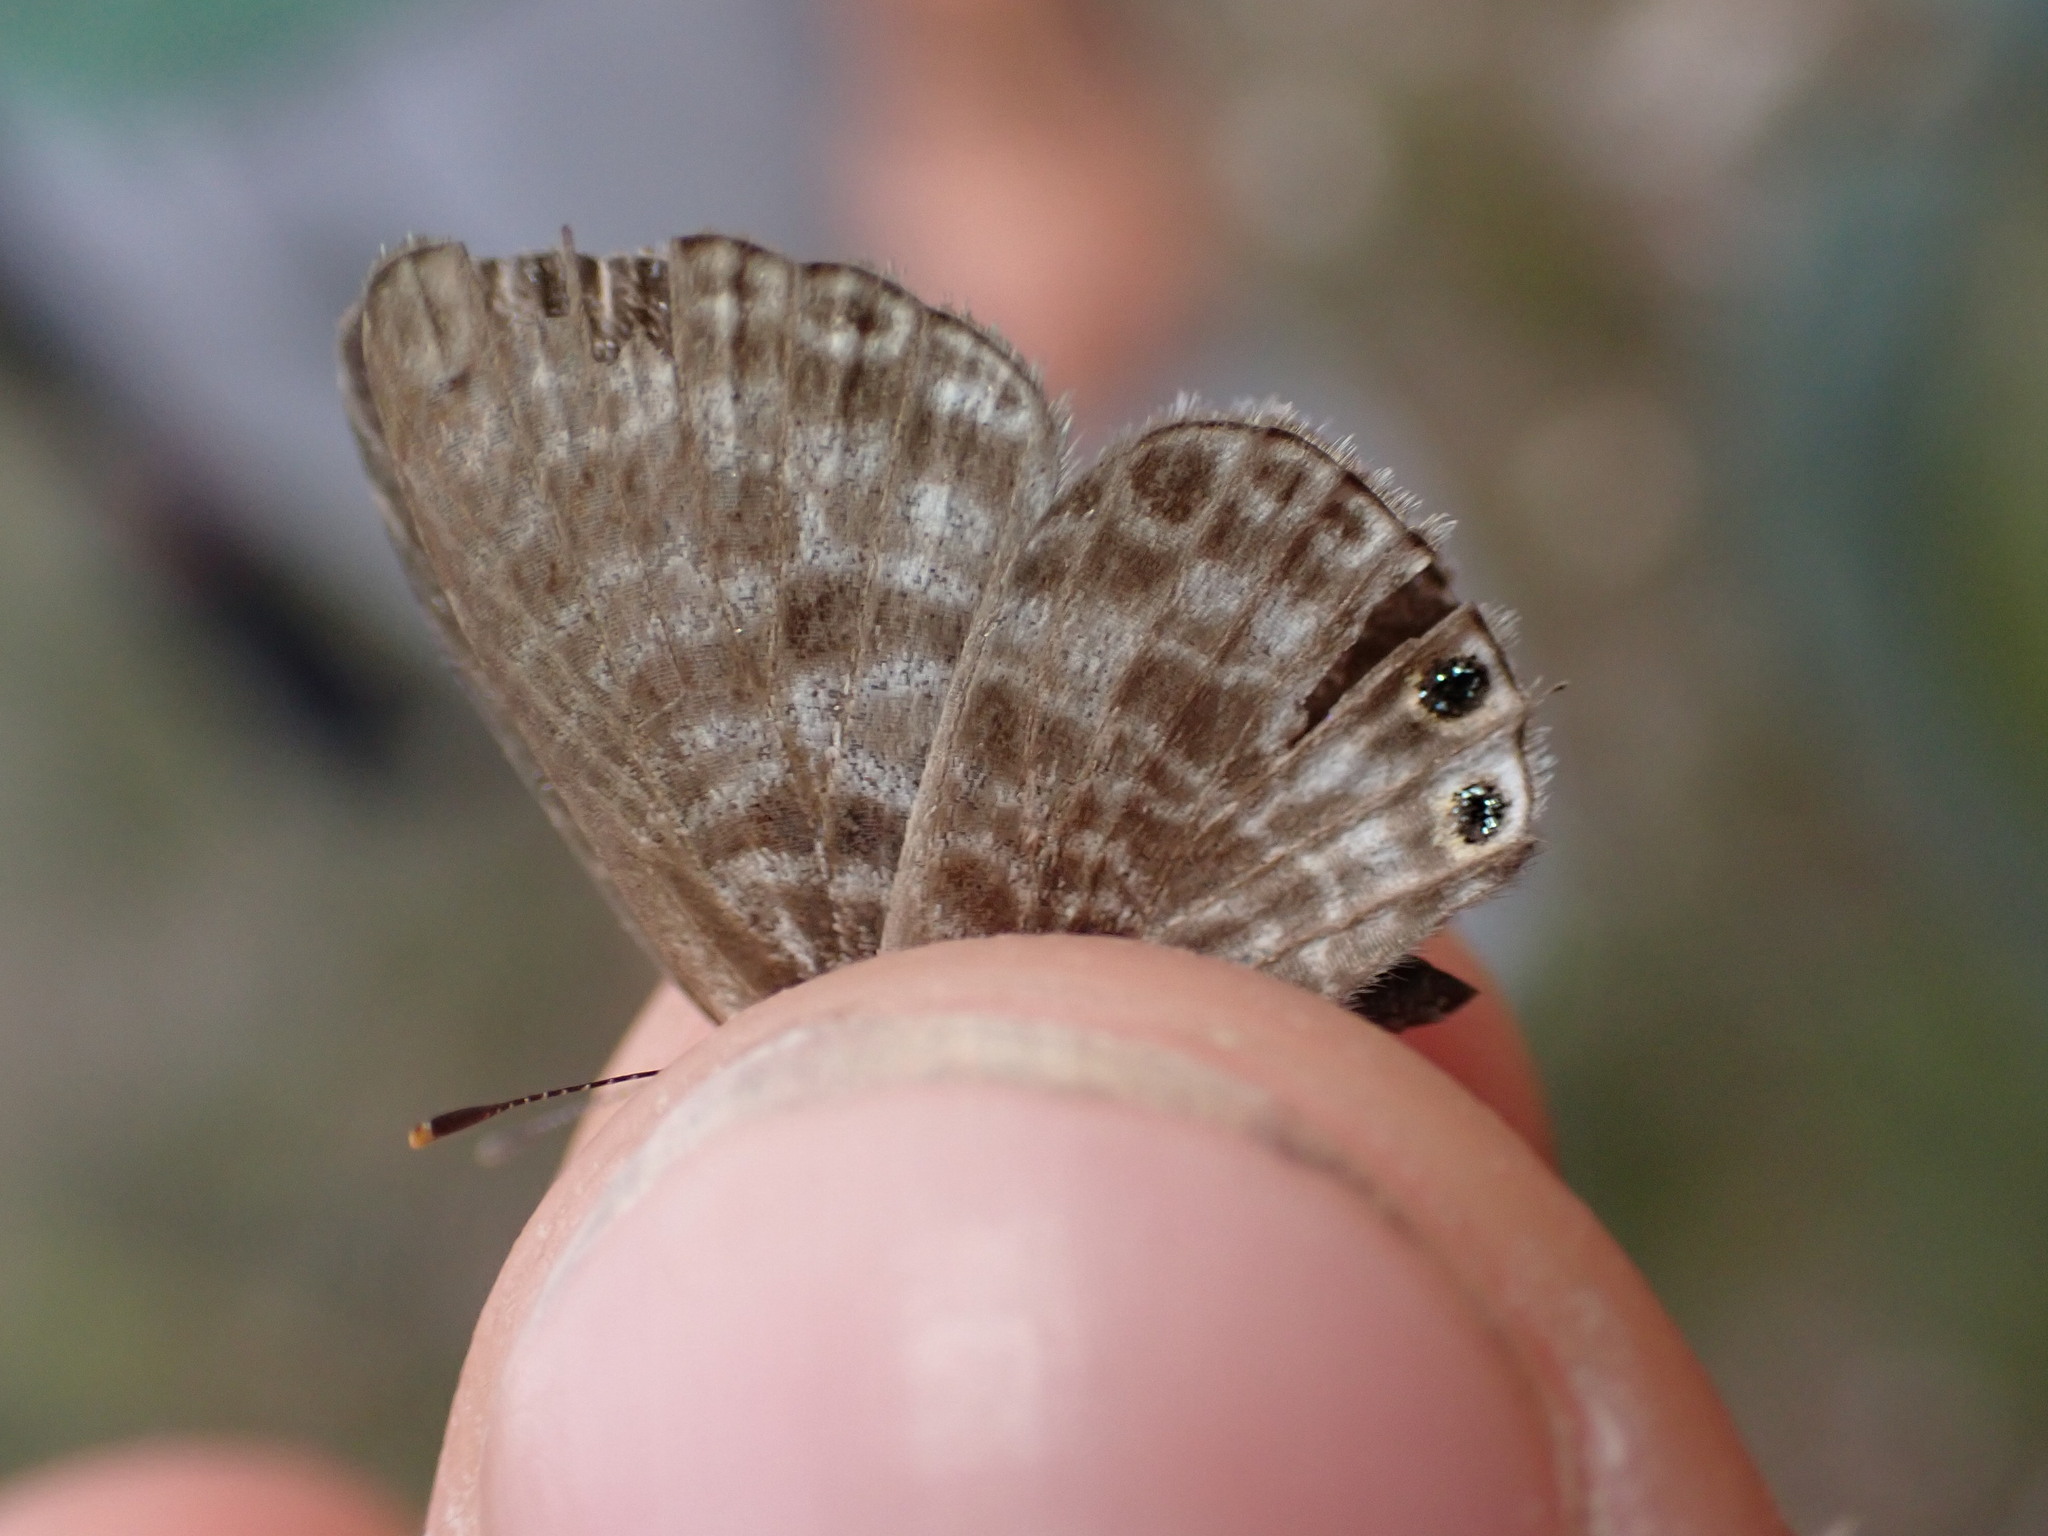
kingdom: Animalia
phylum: Arthropoda
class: Insecta
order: Lepidoptera
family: Lycaenidae
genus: Leptotes
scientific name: Leptotes pirithous
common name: Lang's short-tailed blue
